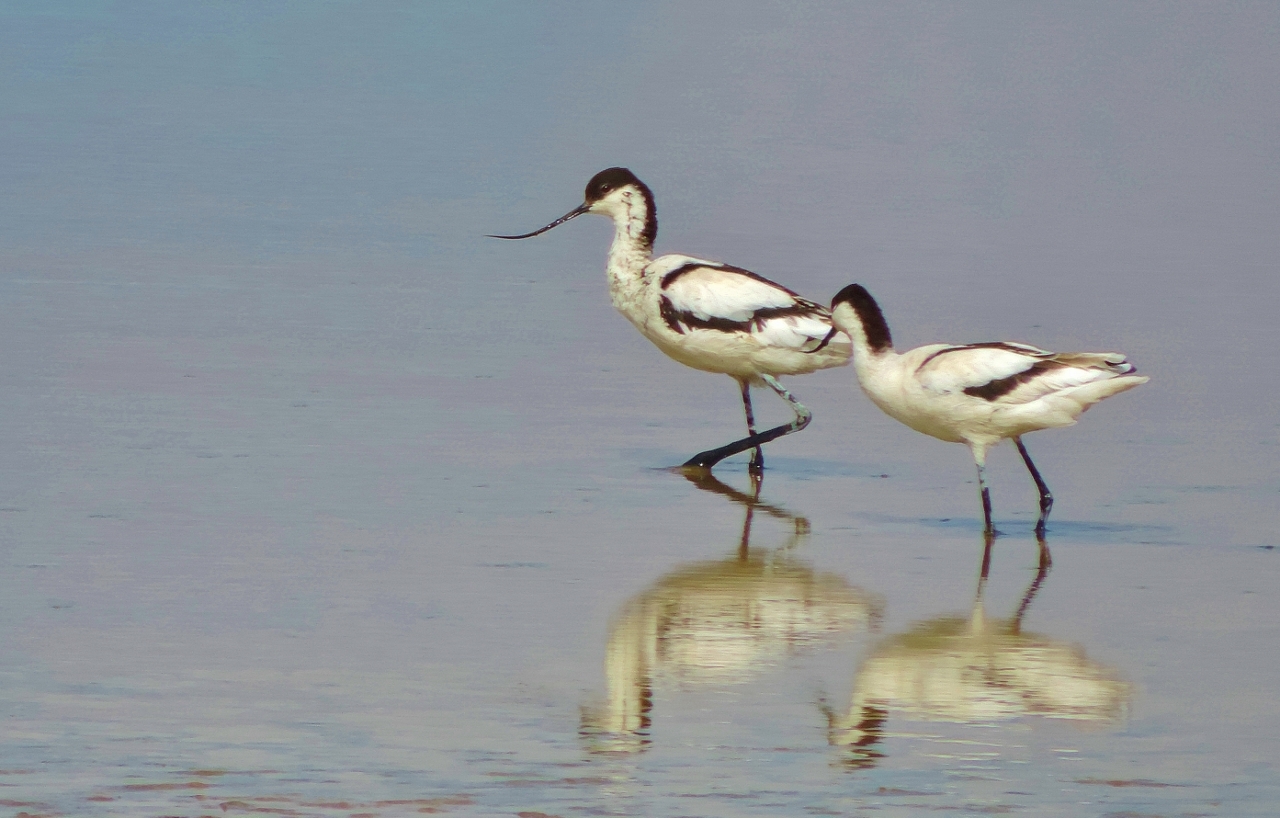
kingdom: Animalia
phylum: Chordata
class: Aves
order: Charadriiformes
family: Recurvirostridae
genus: Recurvirostra
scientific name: Recurvirostra avosetta
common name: Pied avocet
